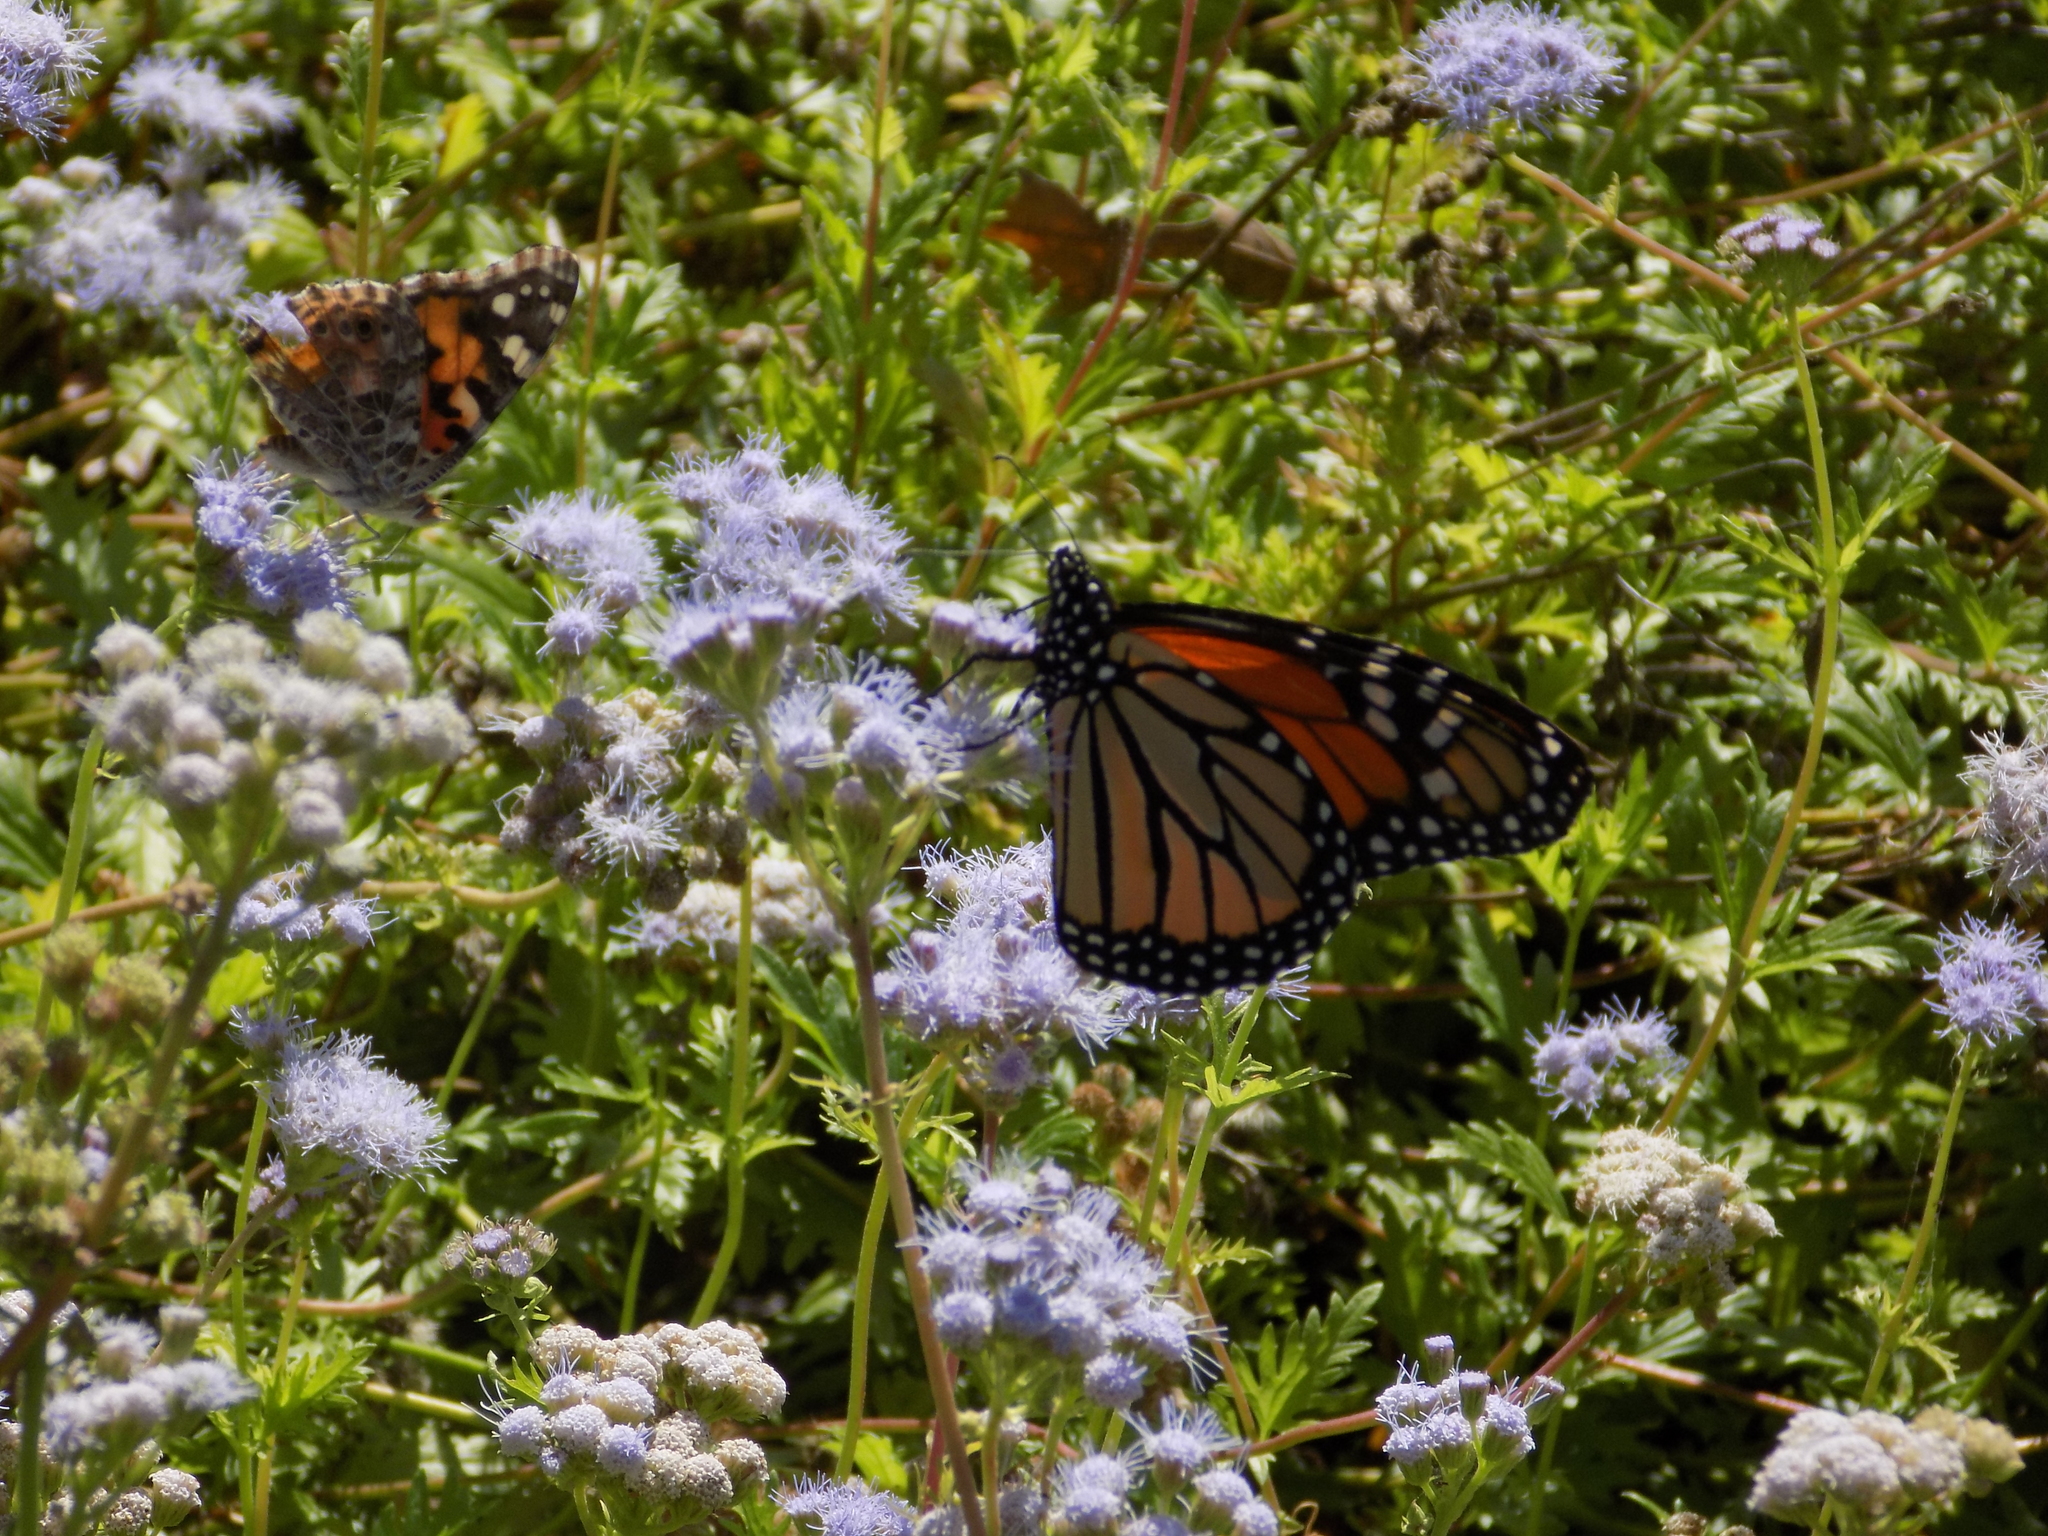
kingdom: Animalia
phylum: Arthropoda
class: Insecta
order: Lepidoptera
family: Nymphalidae
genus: Danaus
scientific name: Danaus plexippus
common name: Monarch
